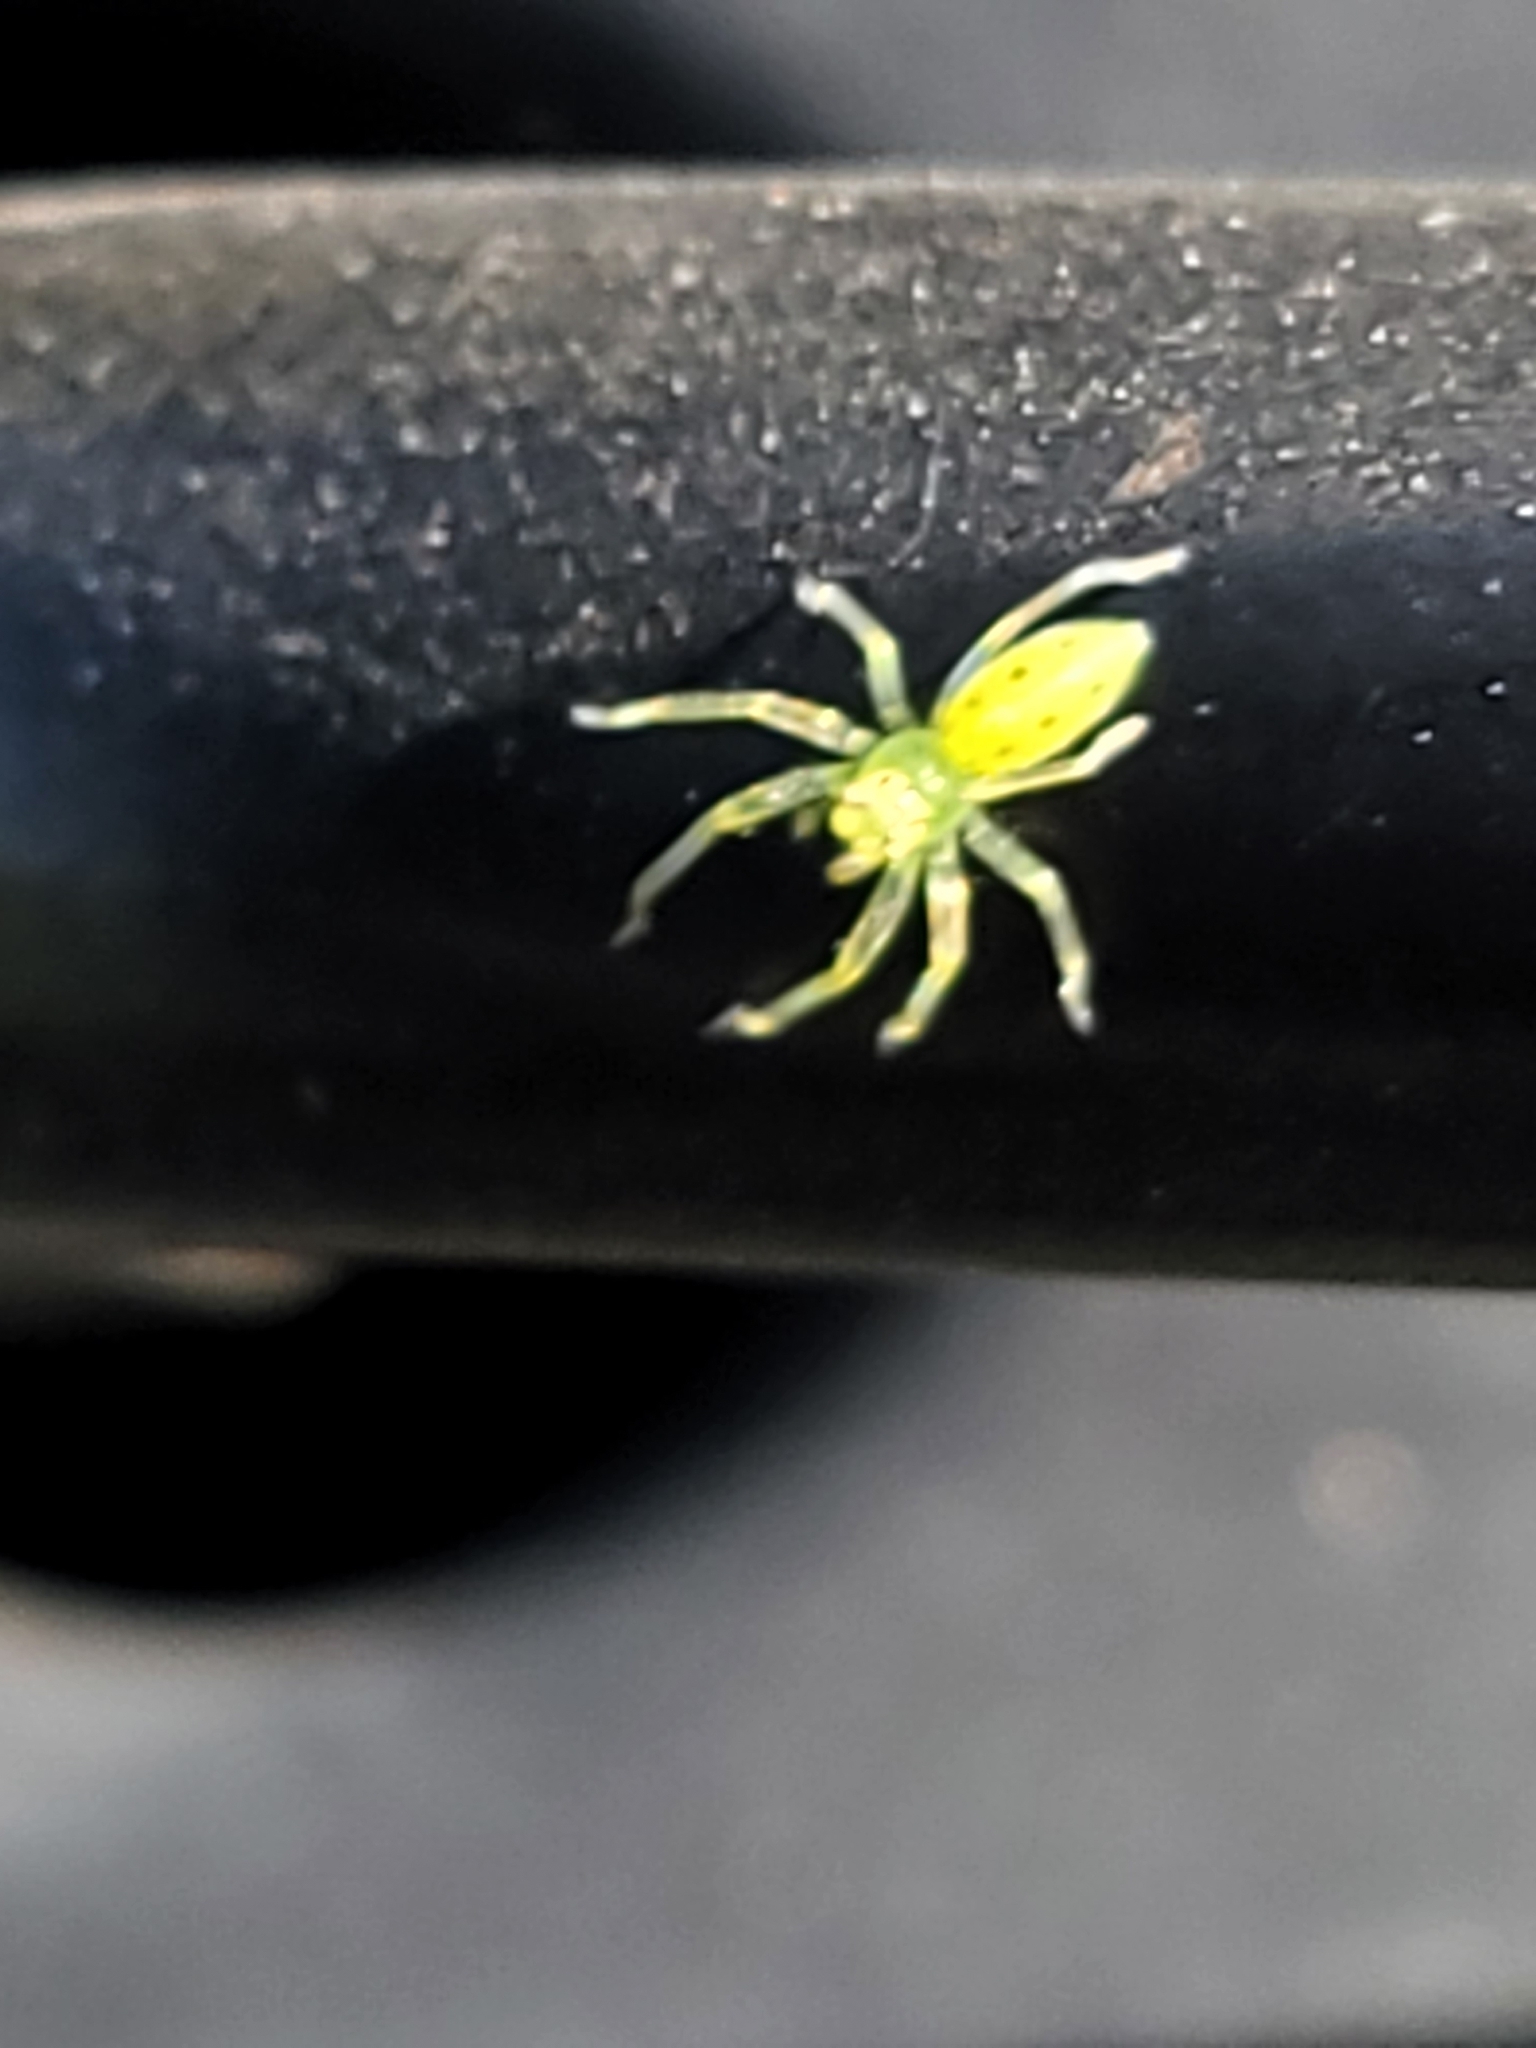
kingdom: Animalia
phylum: Arthropoda
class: Arachnida
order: Araneae
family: Salticidae
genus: Lyssomanes
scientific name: Lyssomanes viridis
